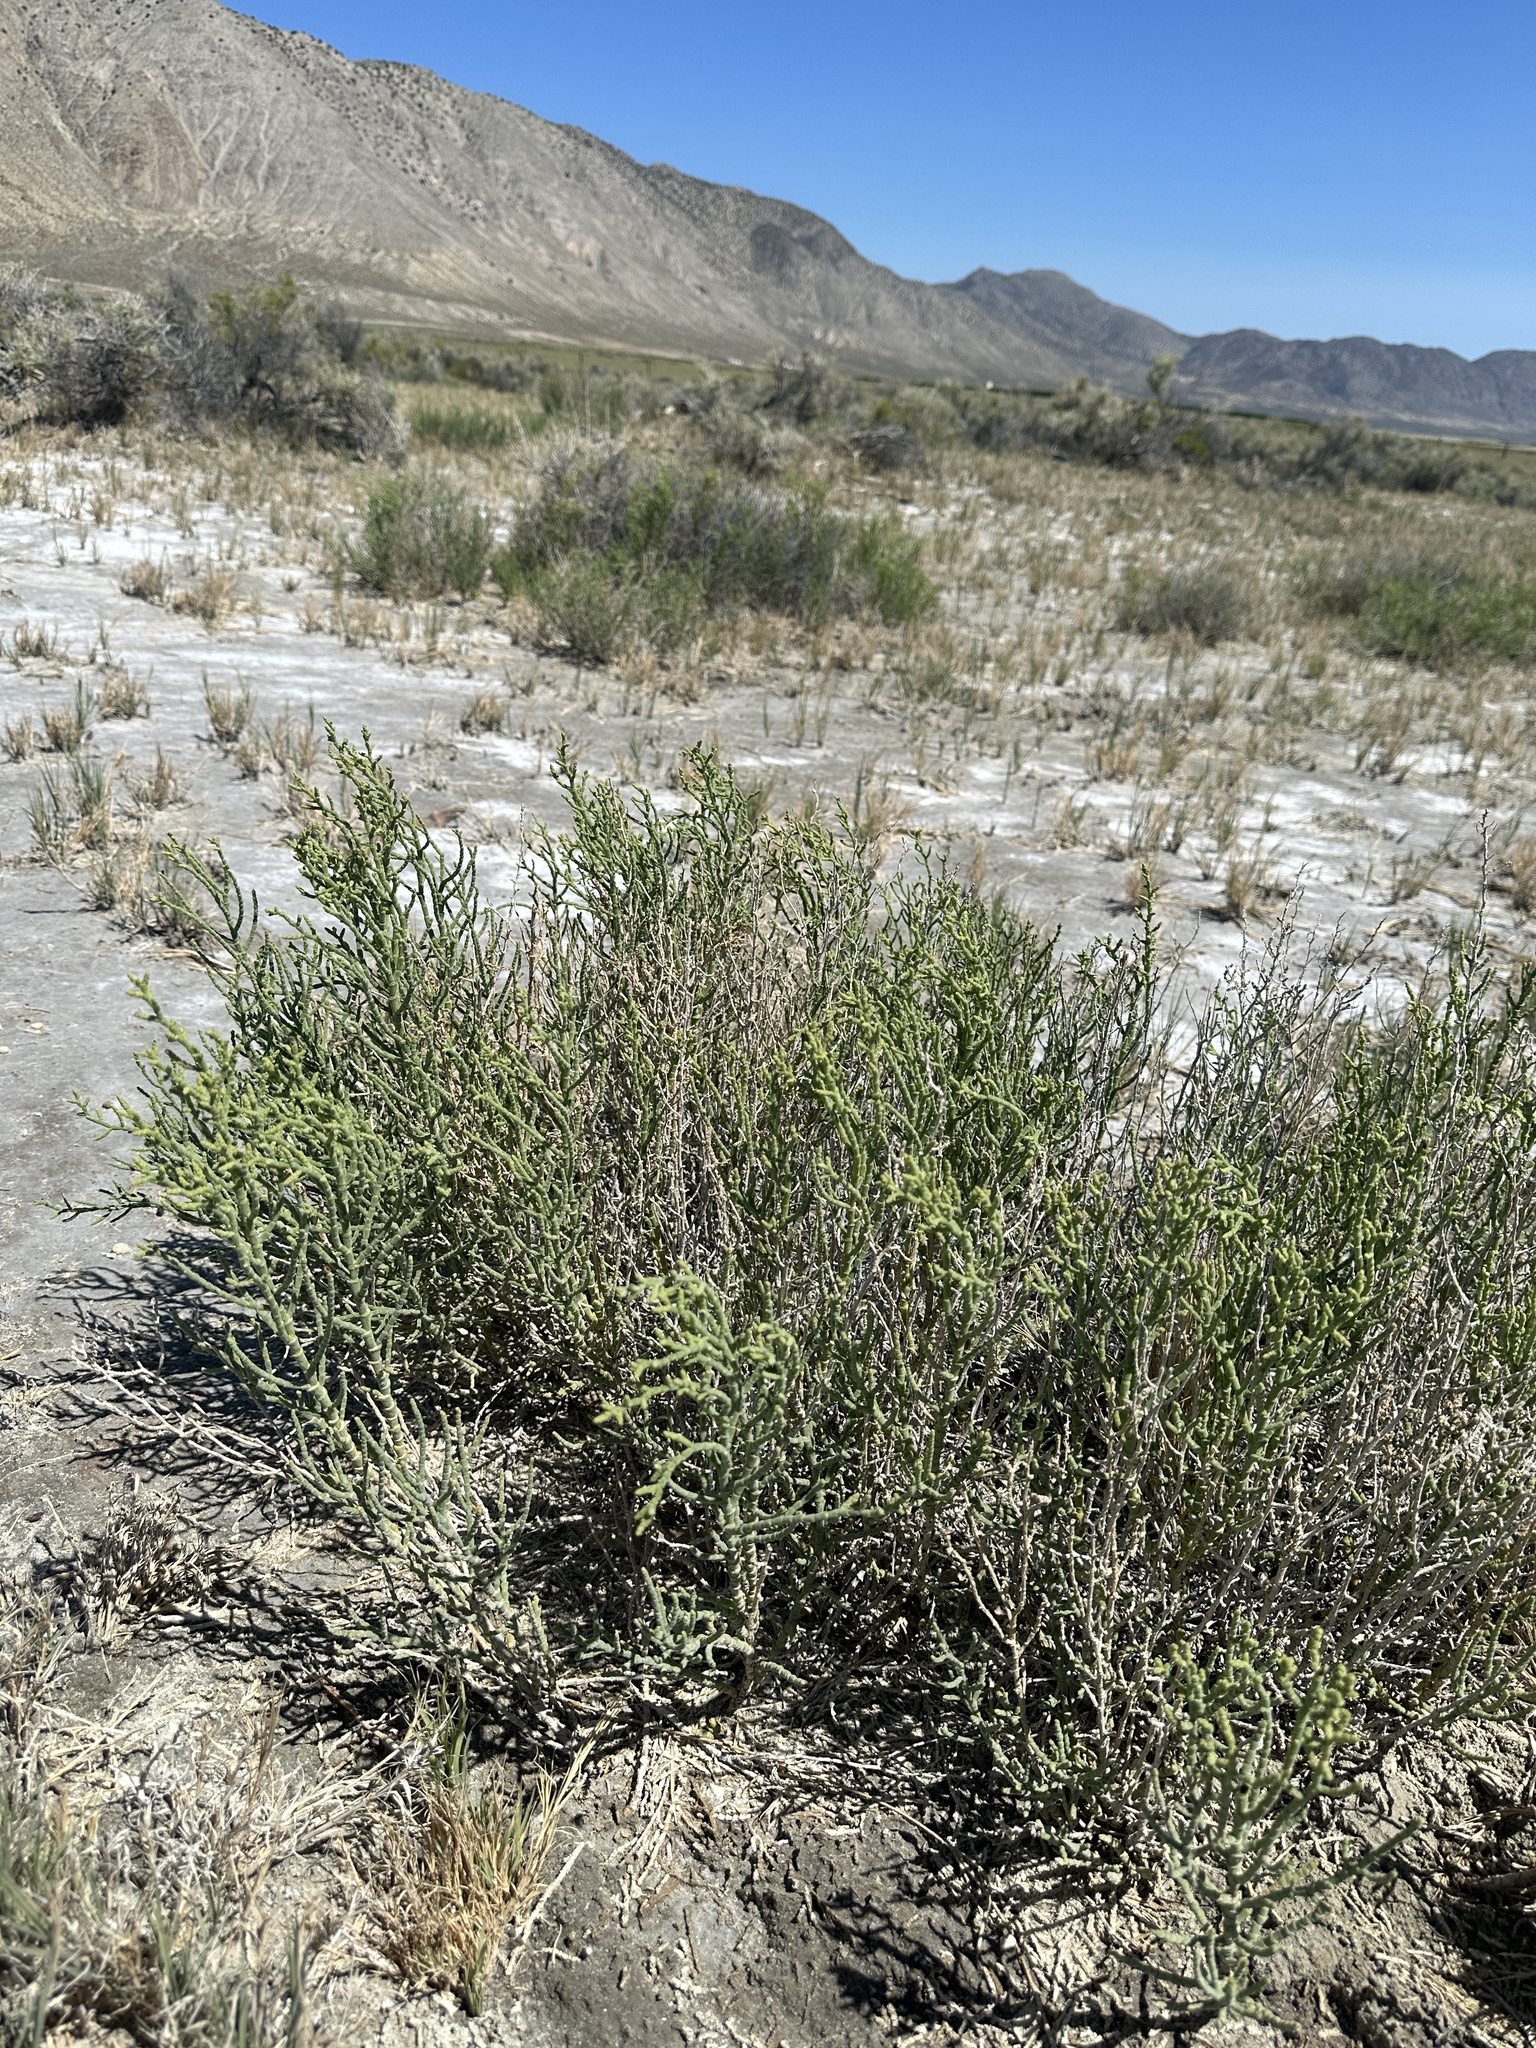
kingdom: Plantae
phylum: Tracheophyta
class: Magnoliopsida
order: Caryophyllales
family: Amaranthaceae
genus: Allenrolfea
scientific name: Allenrolfea occidentalis
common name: Iodine-bush
